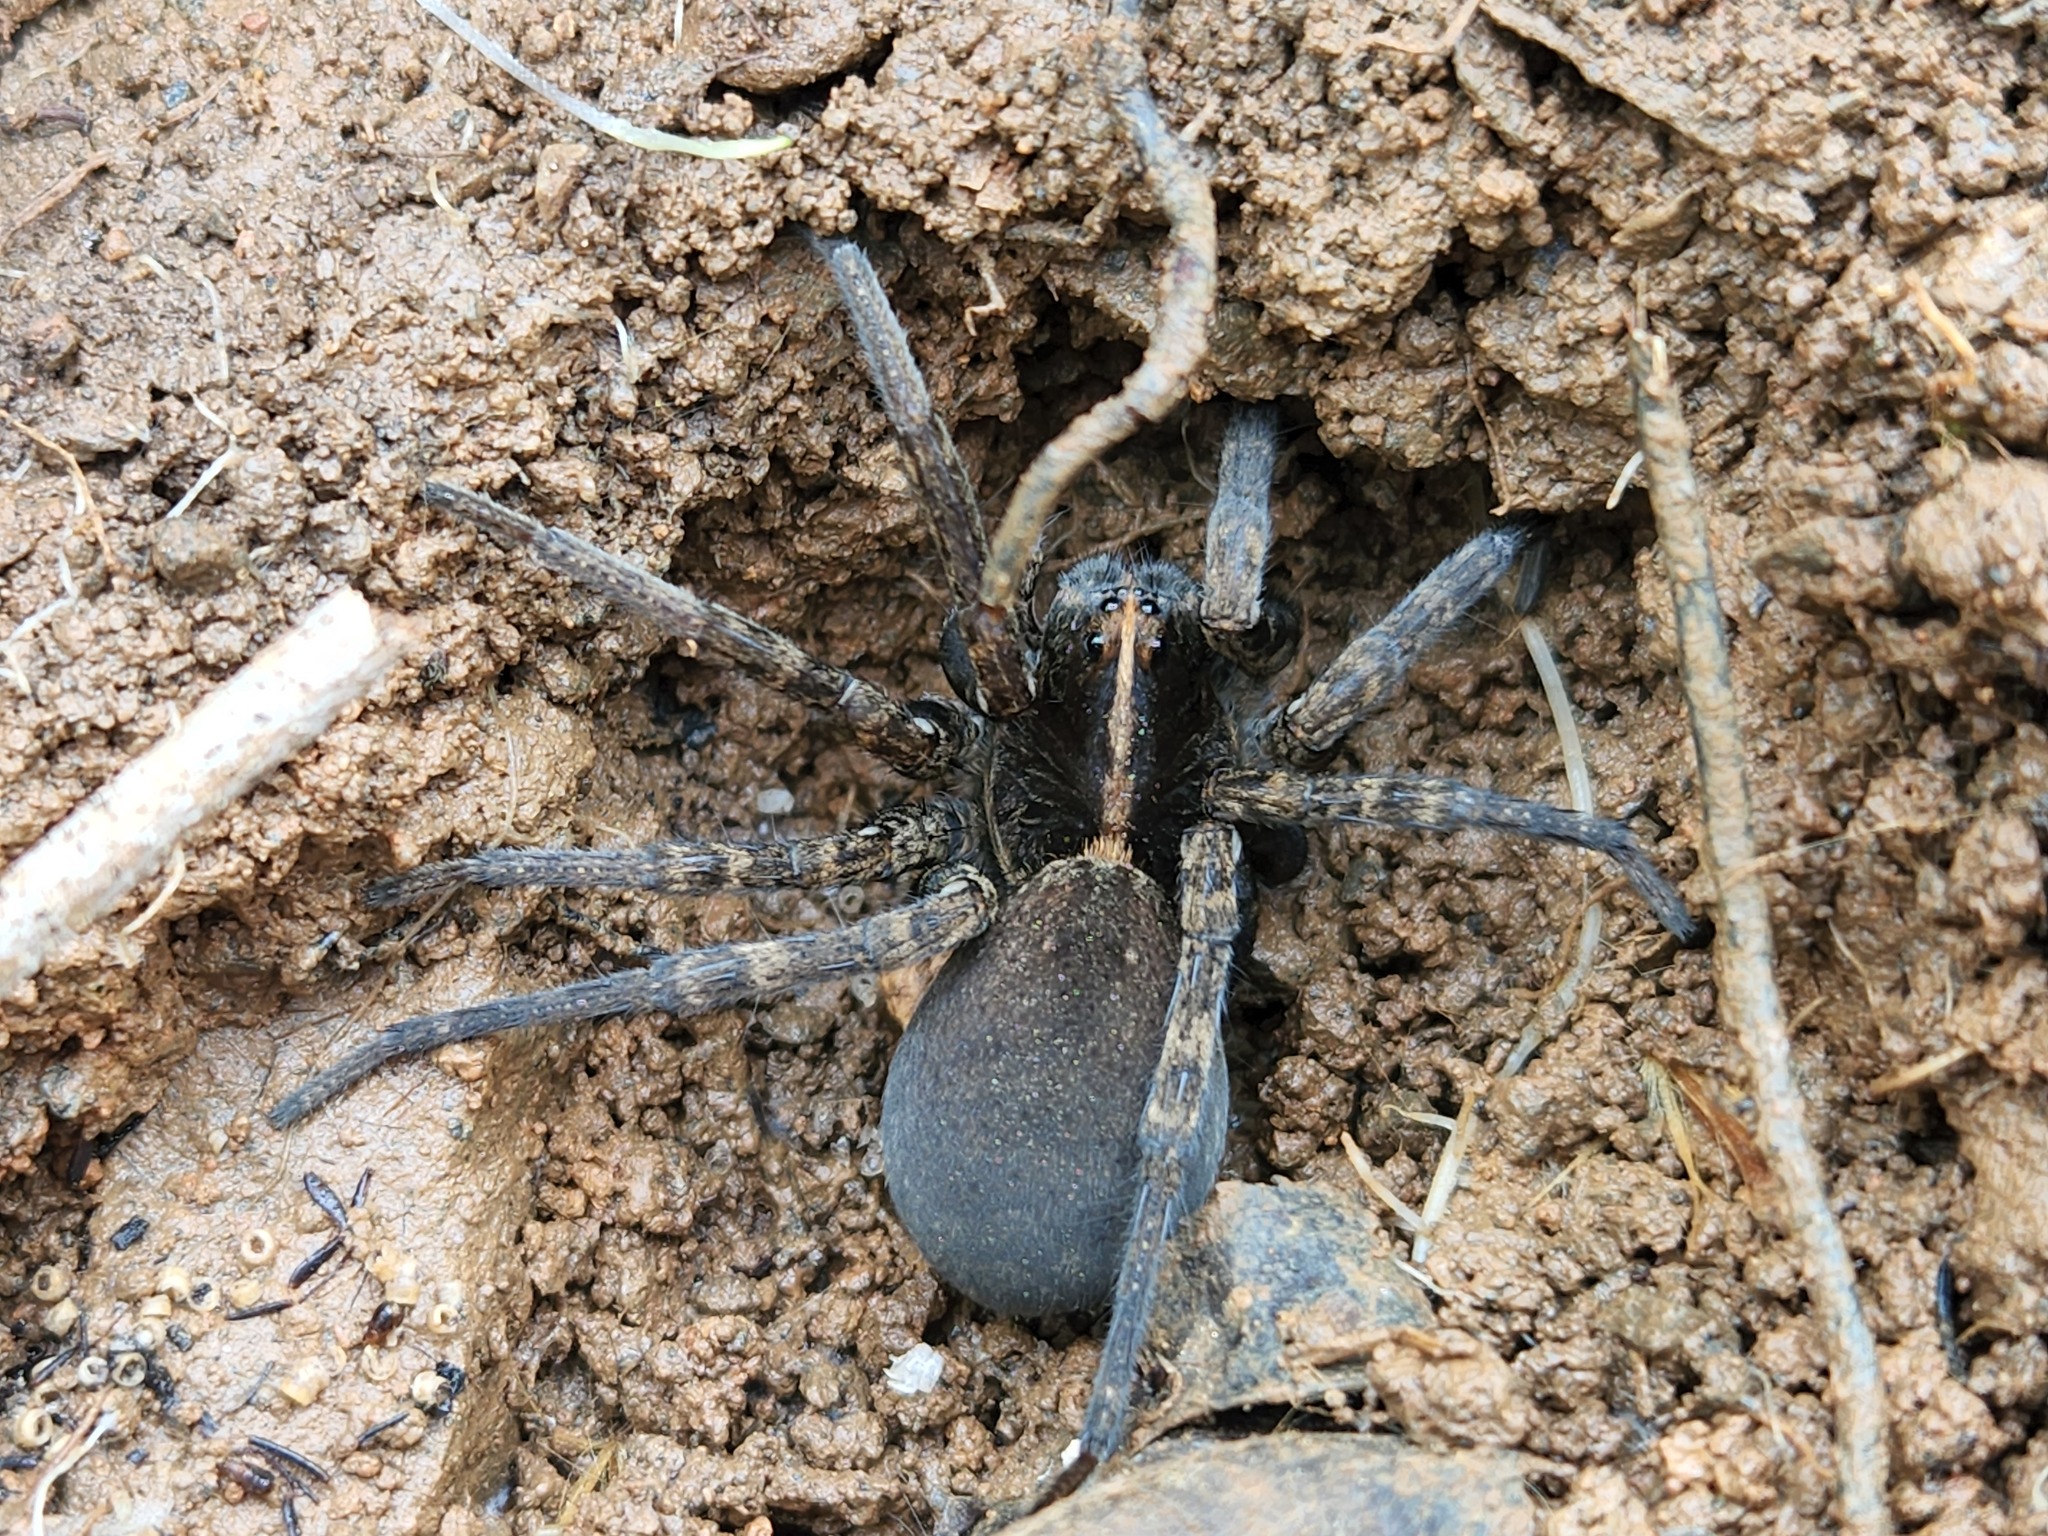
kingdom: Animalia
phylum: Arthropoda
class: Arachnida
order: Araneae
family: Lycosidae
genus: Tigrosa
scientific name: Tigrosa georgicola
